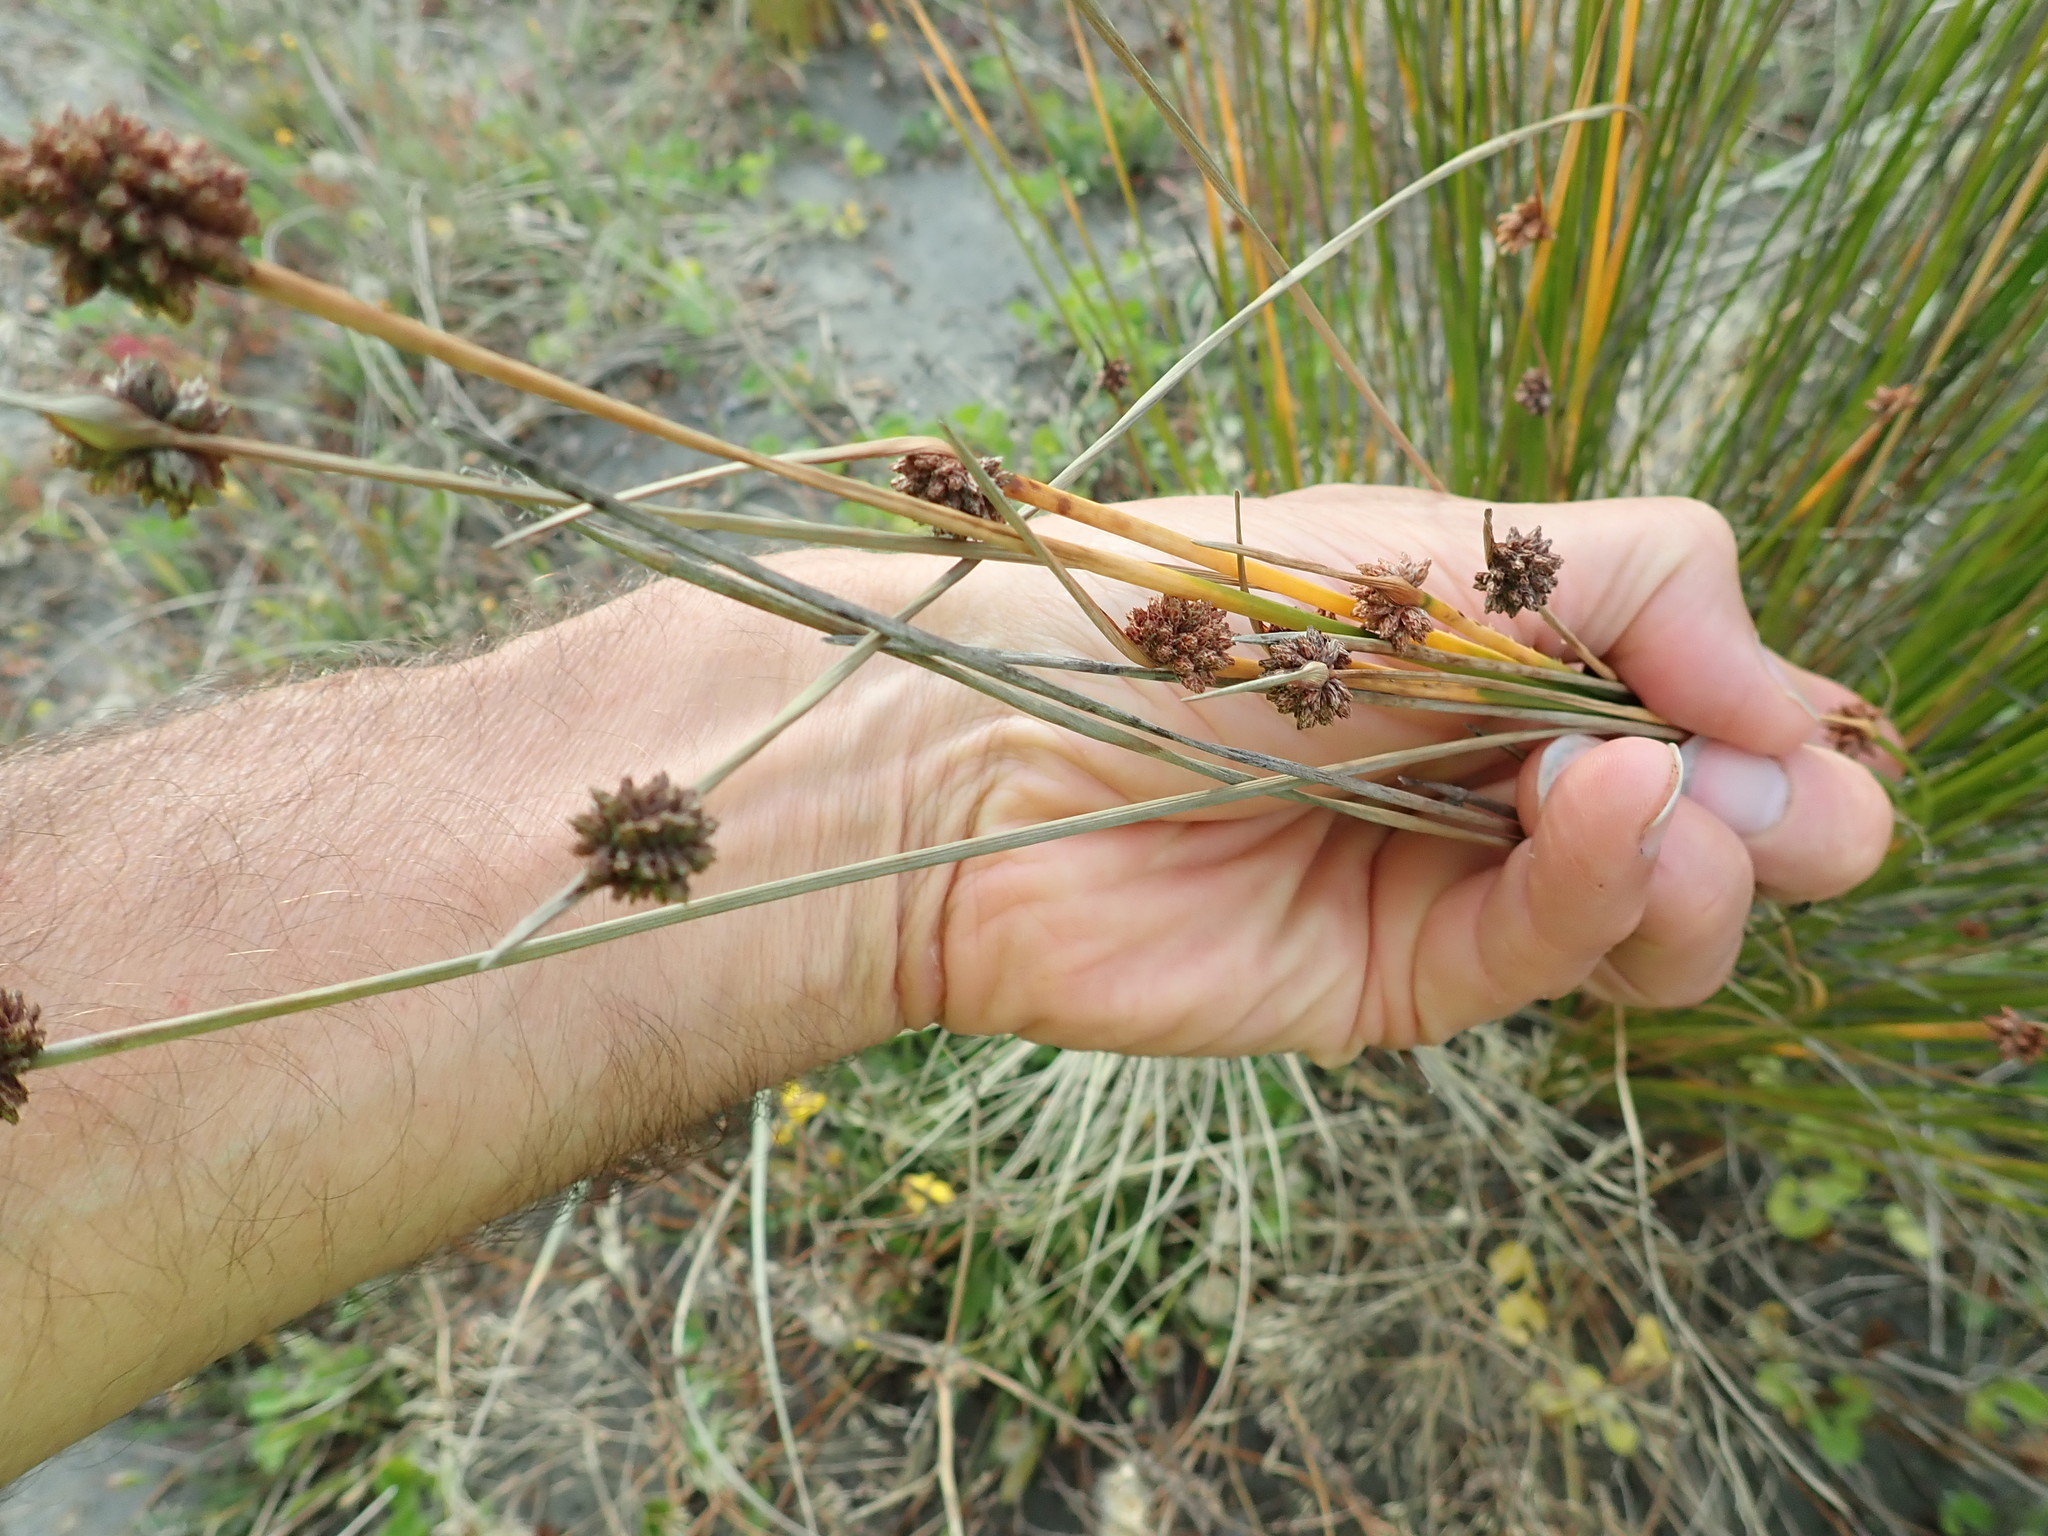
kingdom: Plantae
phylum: Tracheophyta
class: Liliopsida
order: Poales
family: Cyperaceae
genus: Ficinia
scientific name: Ficinia nodosa
